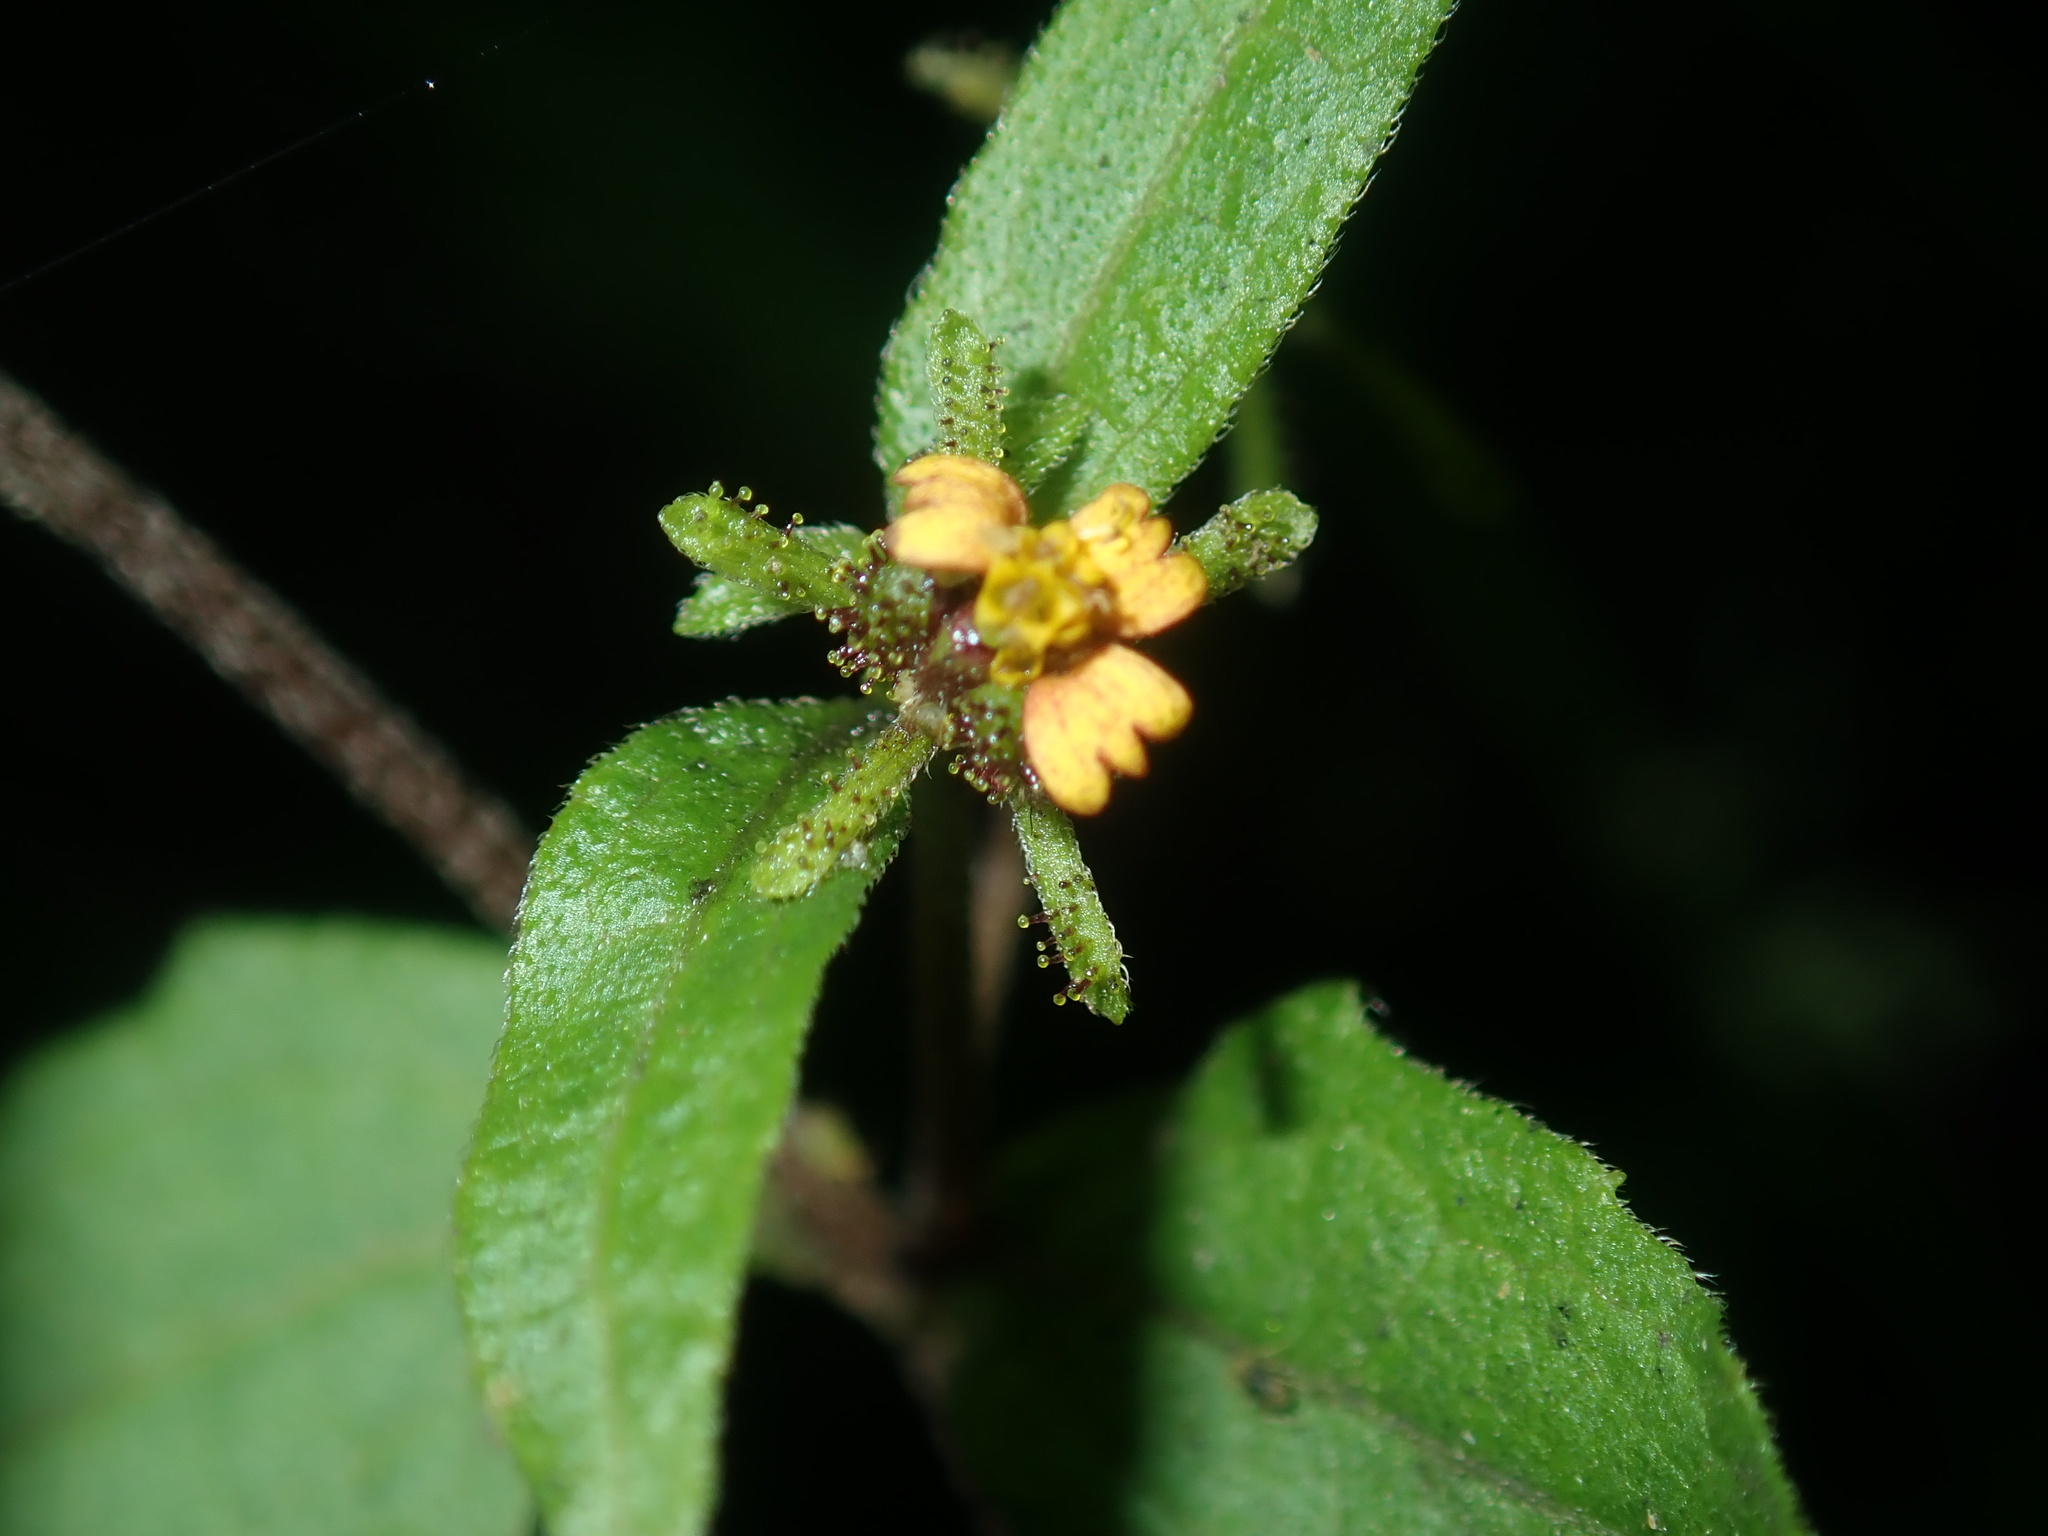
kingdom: Plantae
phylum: Tracheophyta
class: Magnoliopsida
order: Asterales
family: Asteraceae
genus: Sigesbeckia
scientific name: Sigesbeckia orientalis
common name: Eastern st paul's-wort
